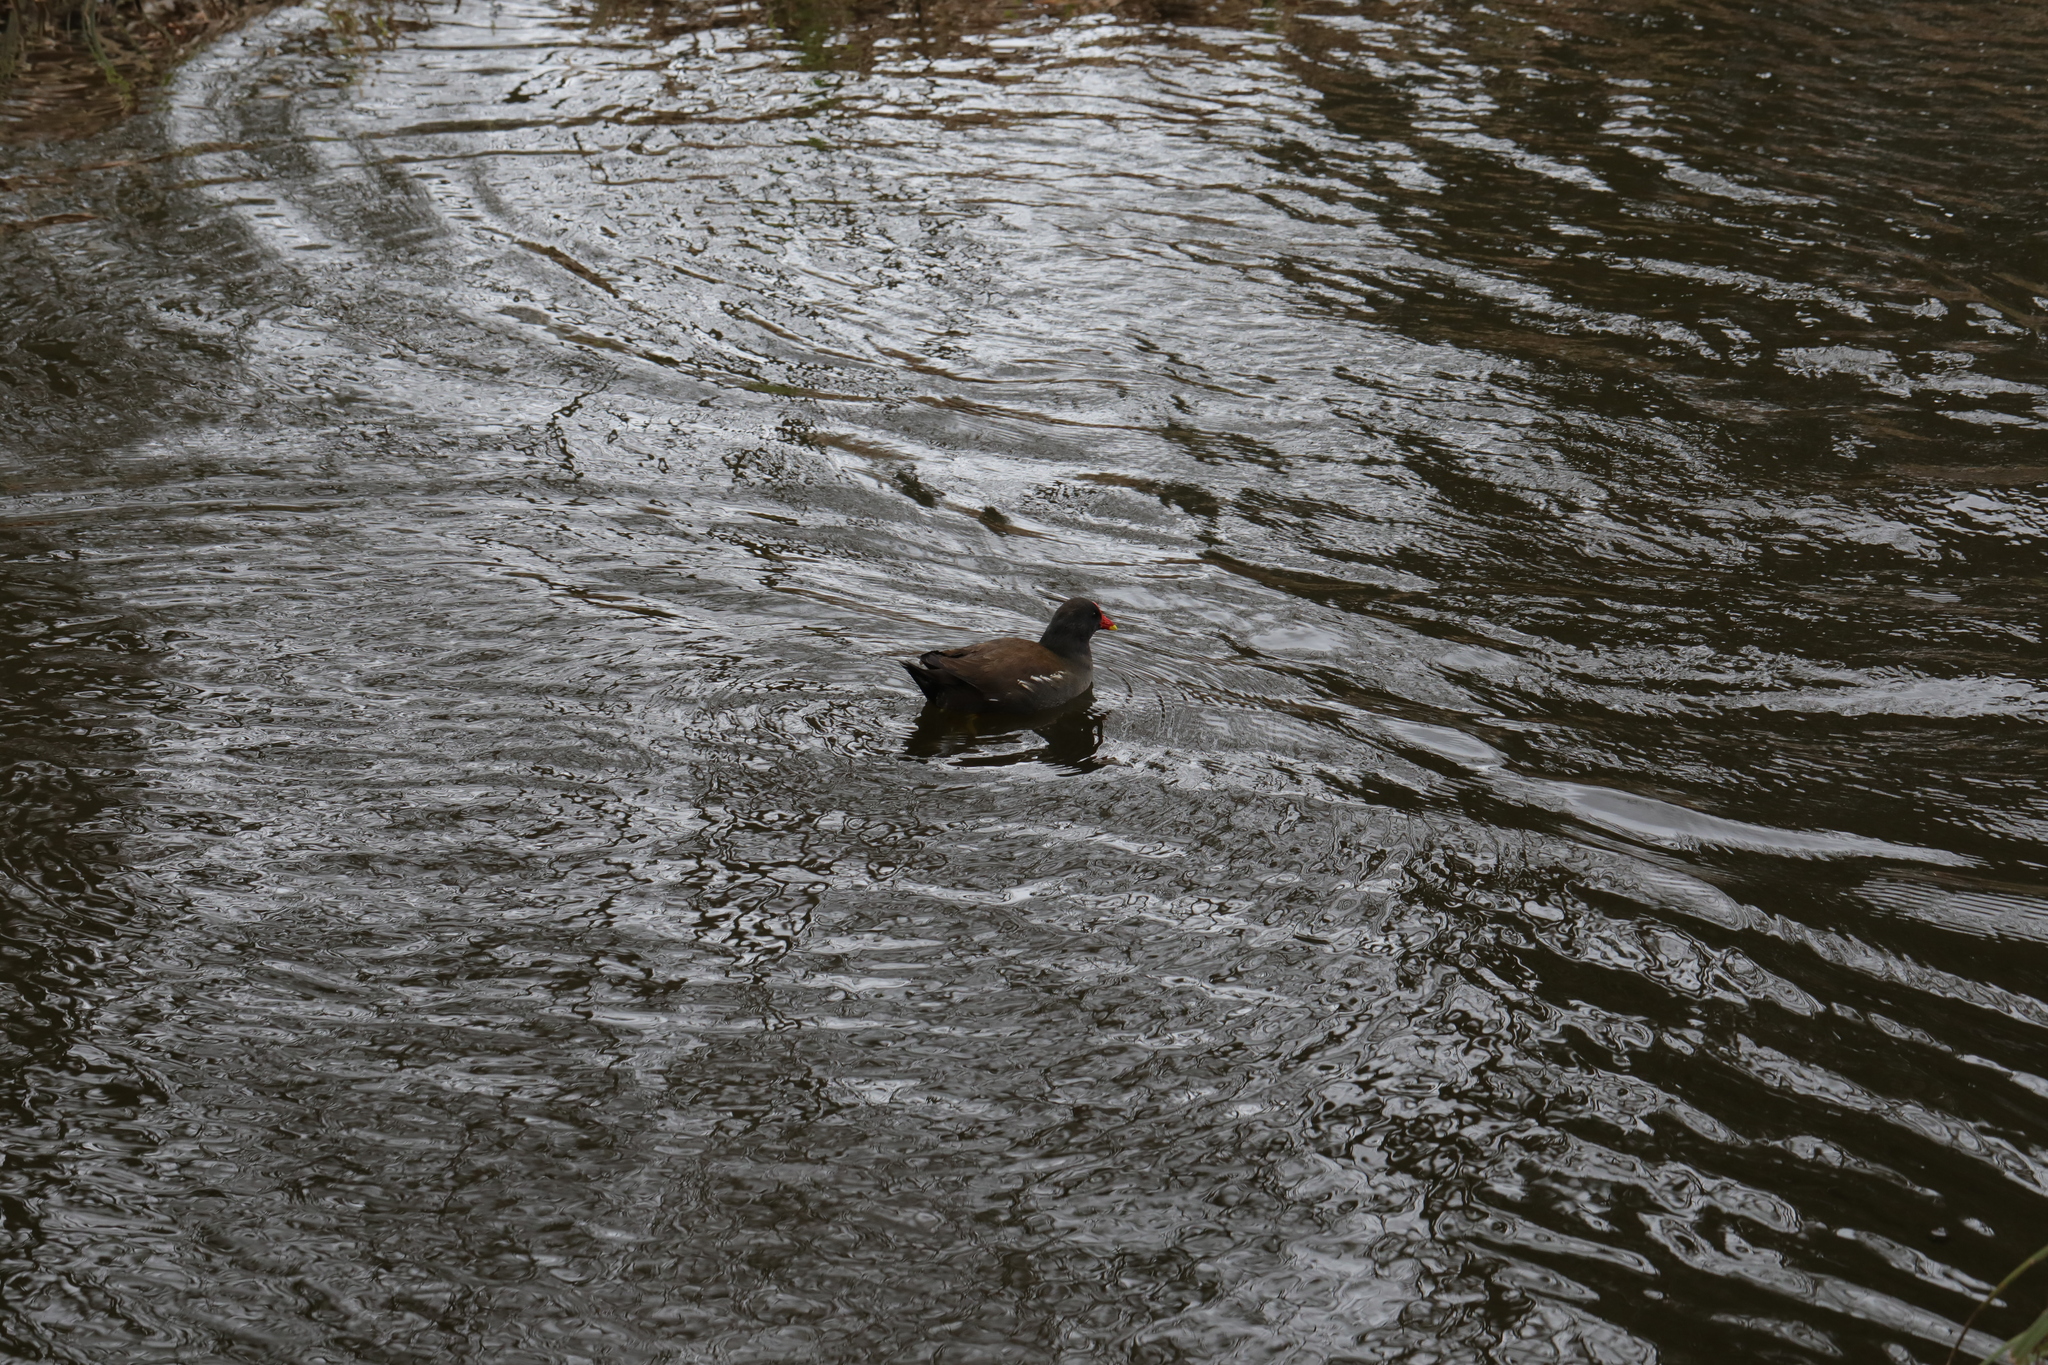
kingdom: Animalia
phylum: Chordata
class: Aves
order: Gruiformes
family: Rallidae
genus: Gallinula
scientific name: Gallinula chloropus
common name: Common moorhen
